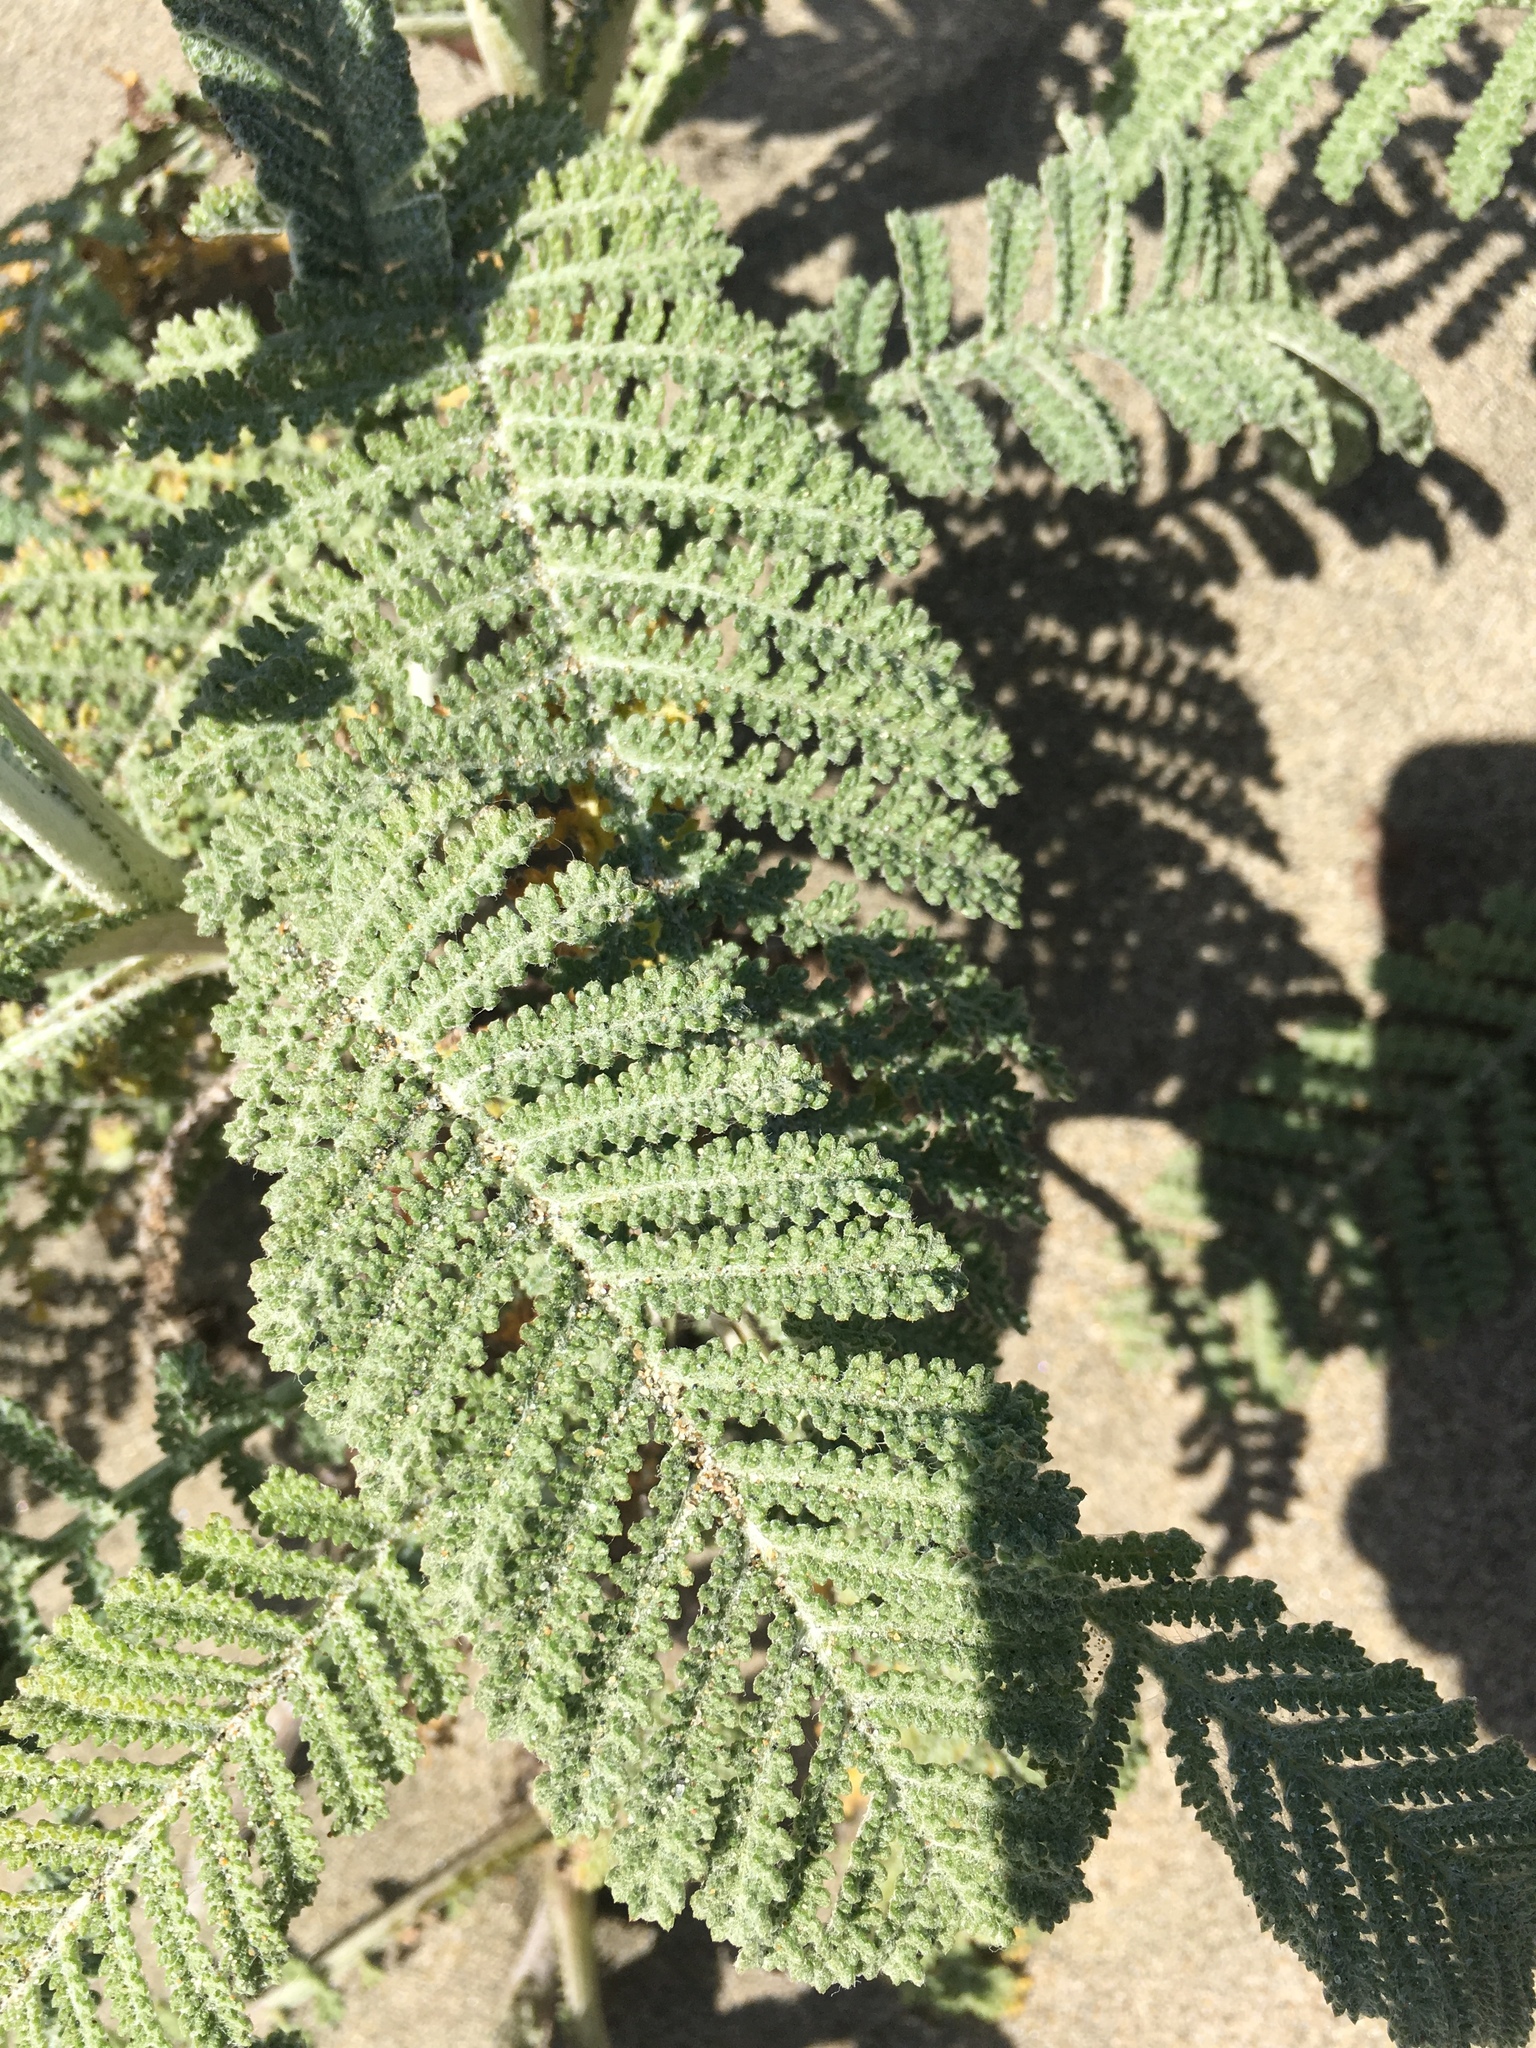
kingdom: Plantae
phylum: Tracheophyta
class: Magnoliopsida
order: Asterales
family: Asteraceae
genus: Tanacetum
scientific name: Tanacetum bipinnatum
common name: Dwarf tansy
